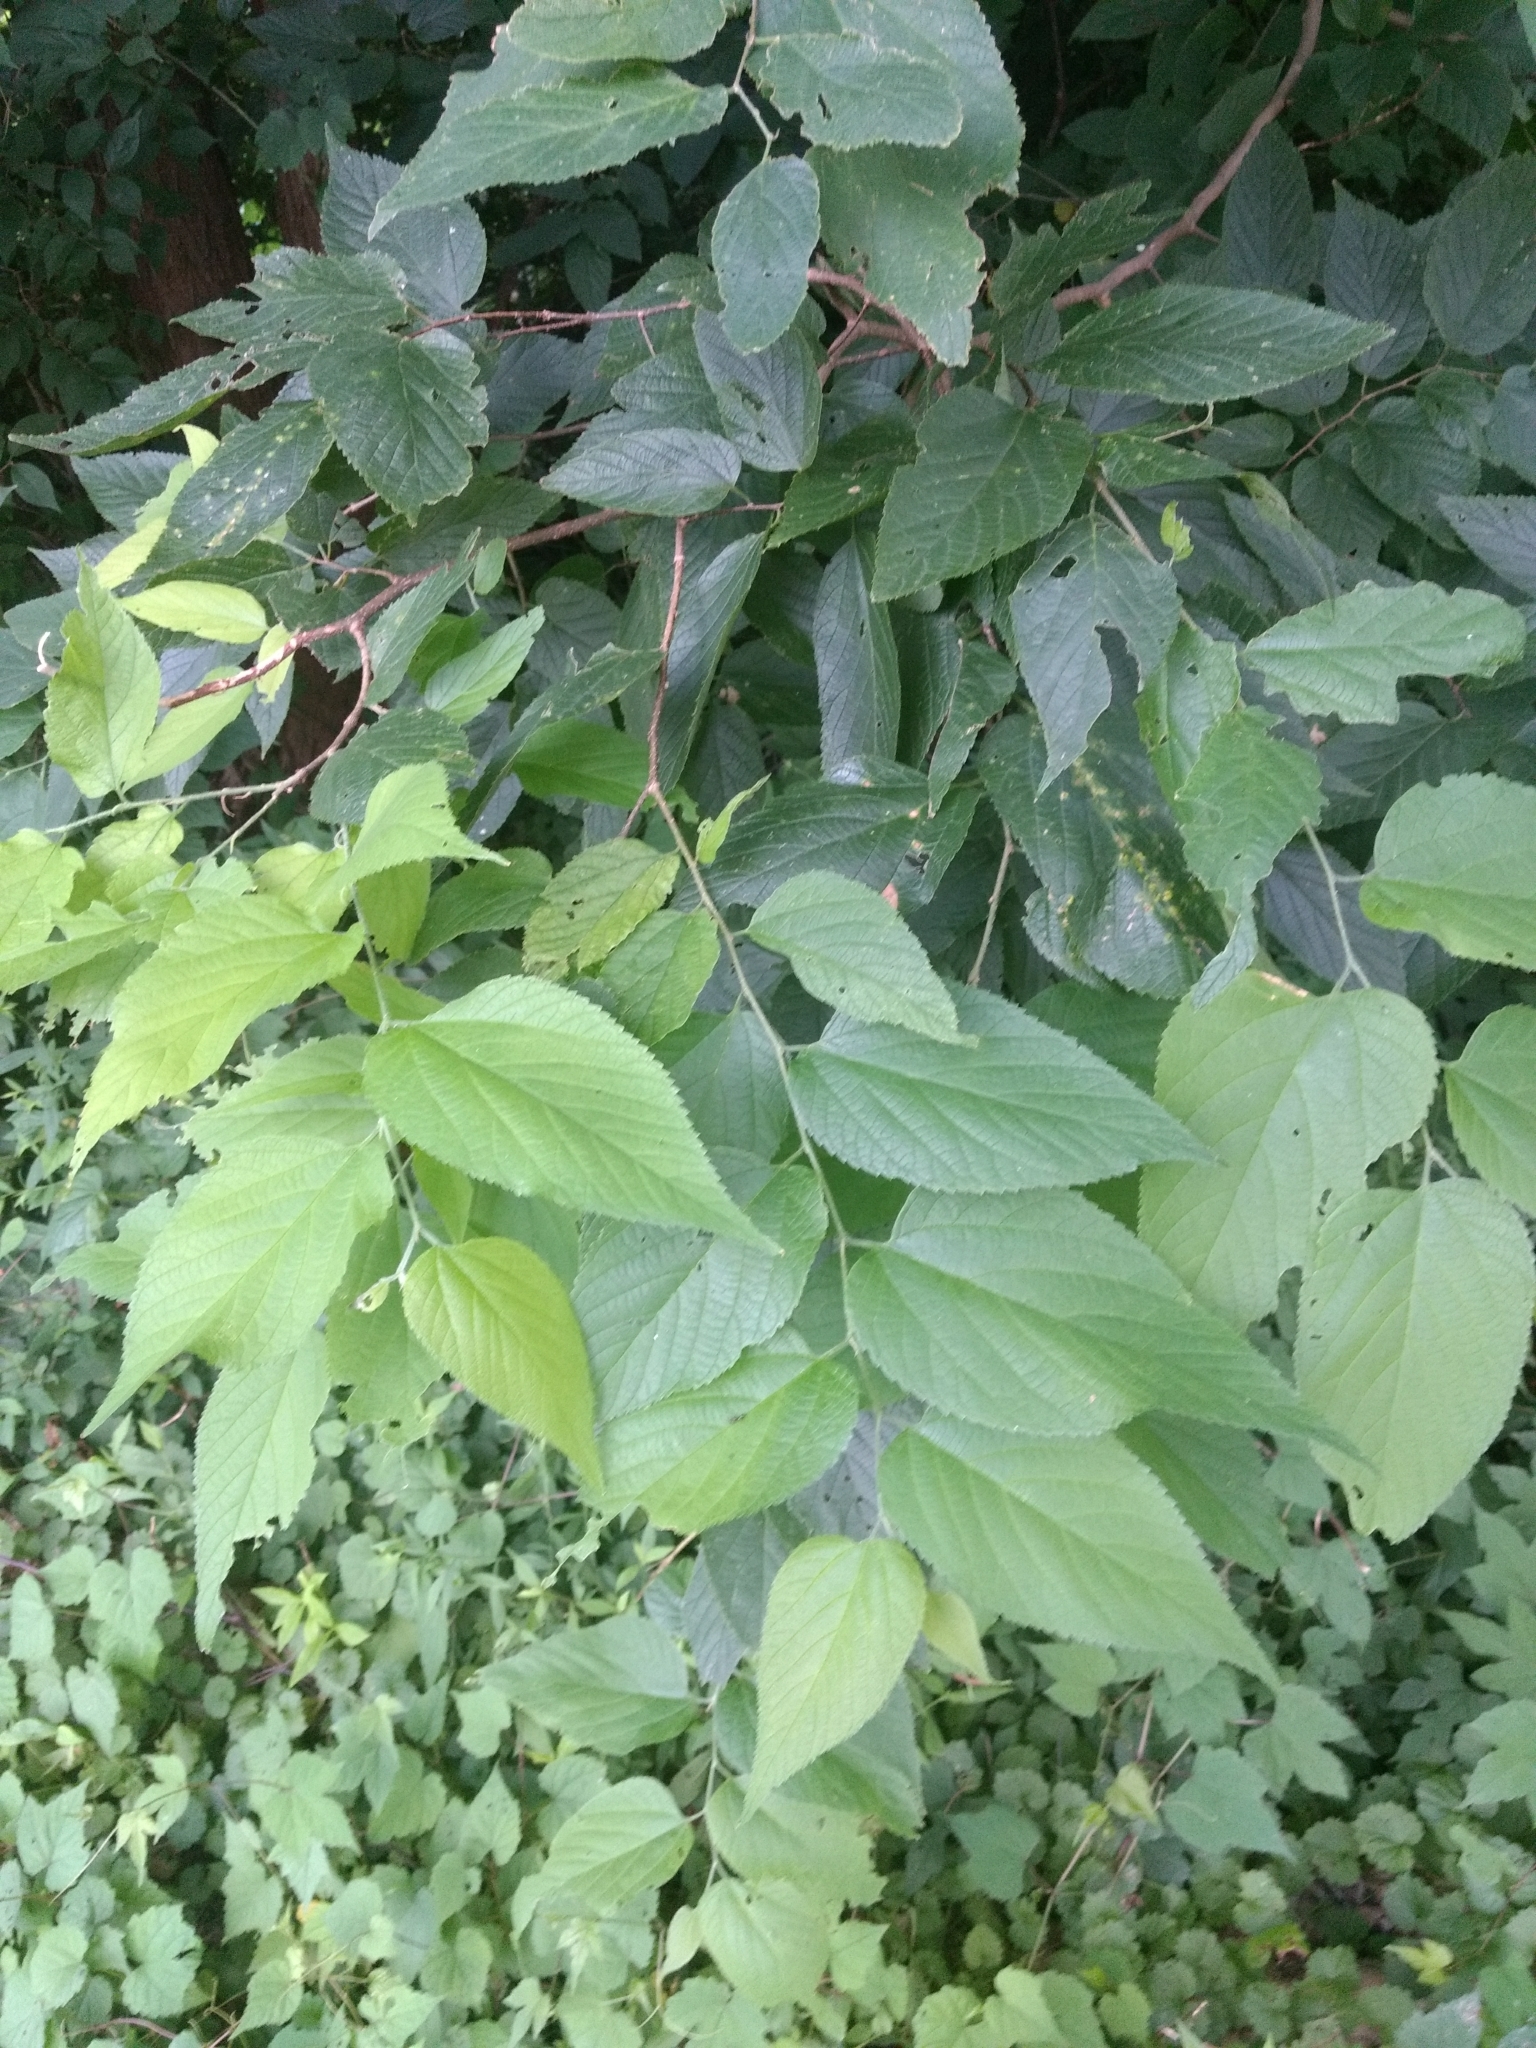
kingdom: Plantae
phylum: Tracheophyta
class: Magnoliopsida
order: Rosales
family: Cannabaceae
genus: Celtis
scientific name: Celtis occidentalis
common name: Common hackberry
